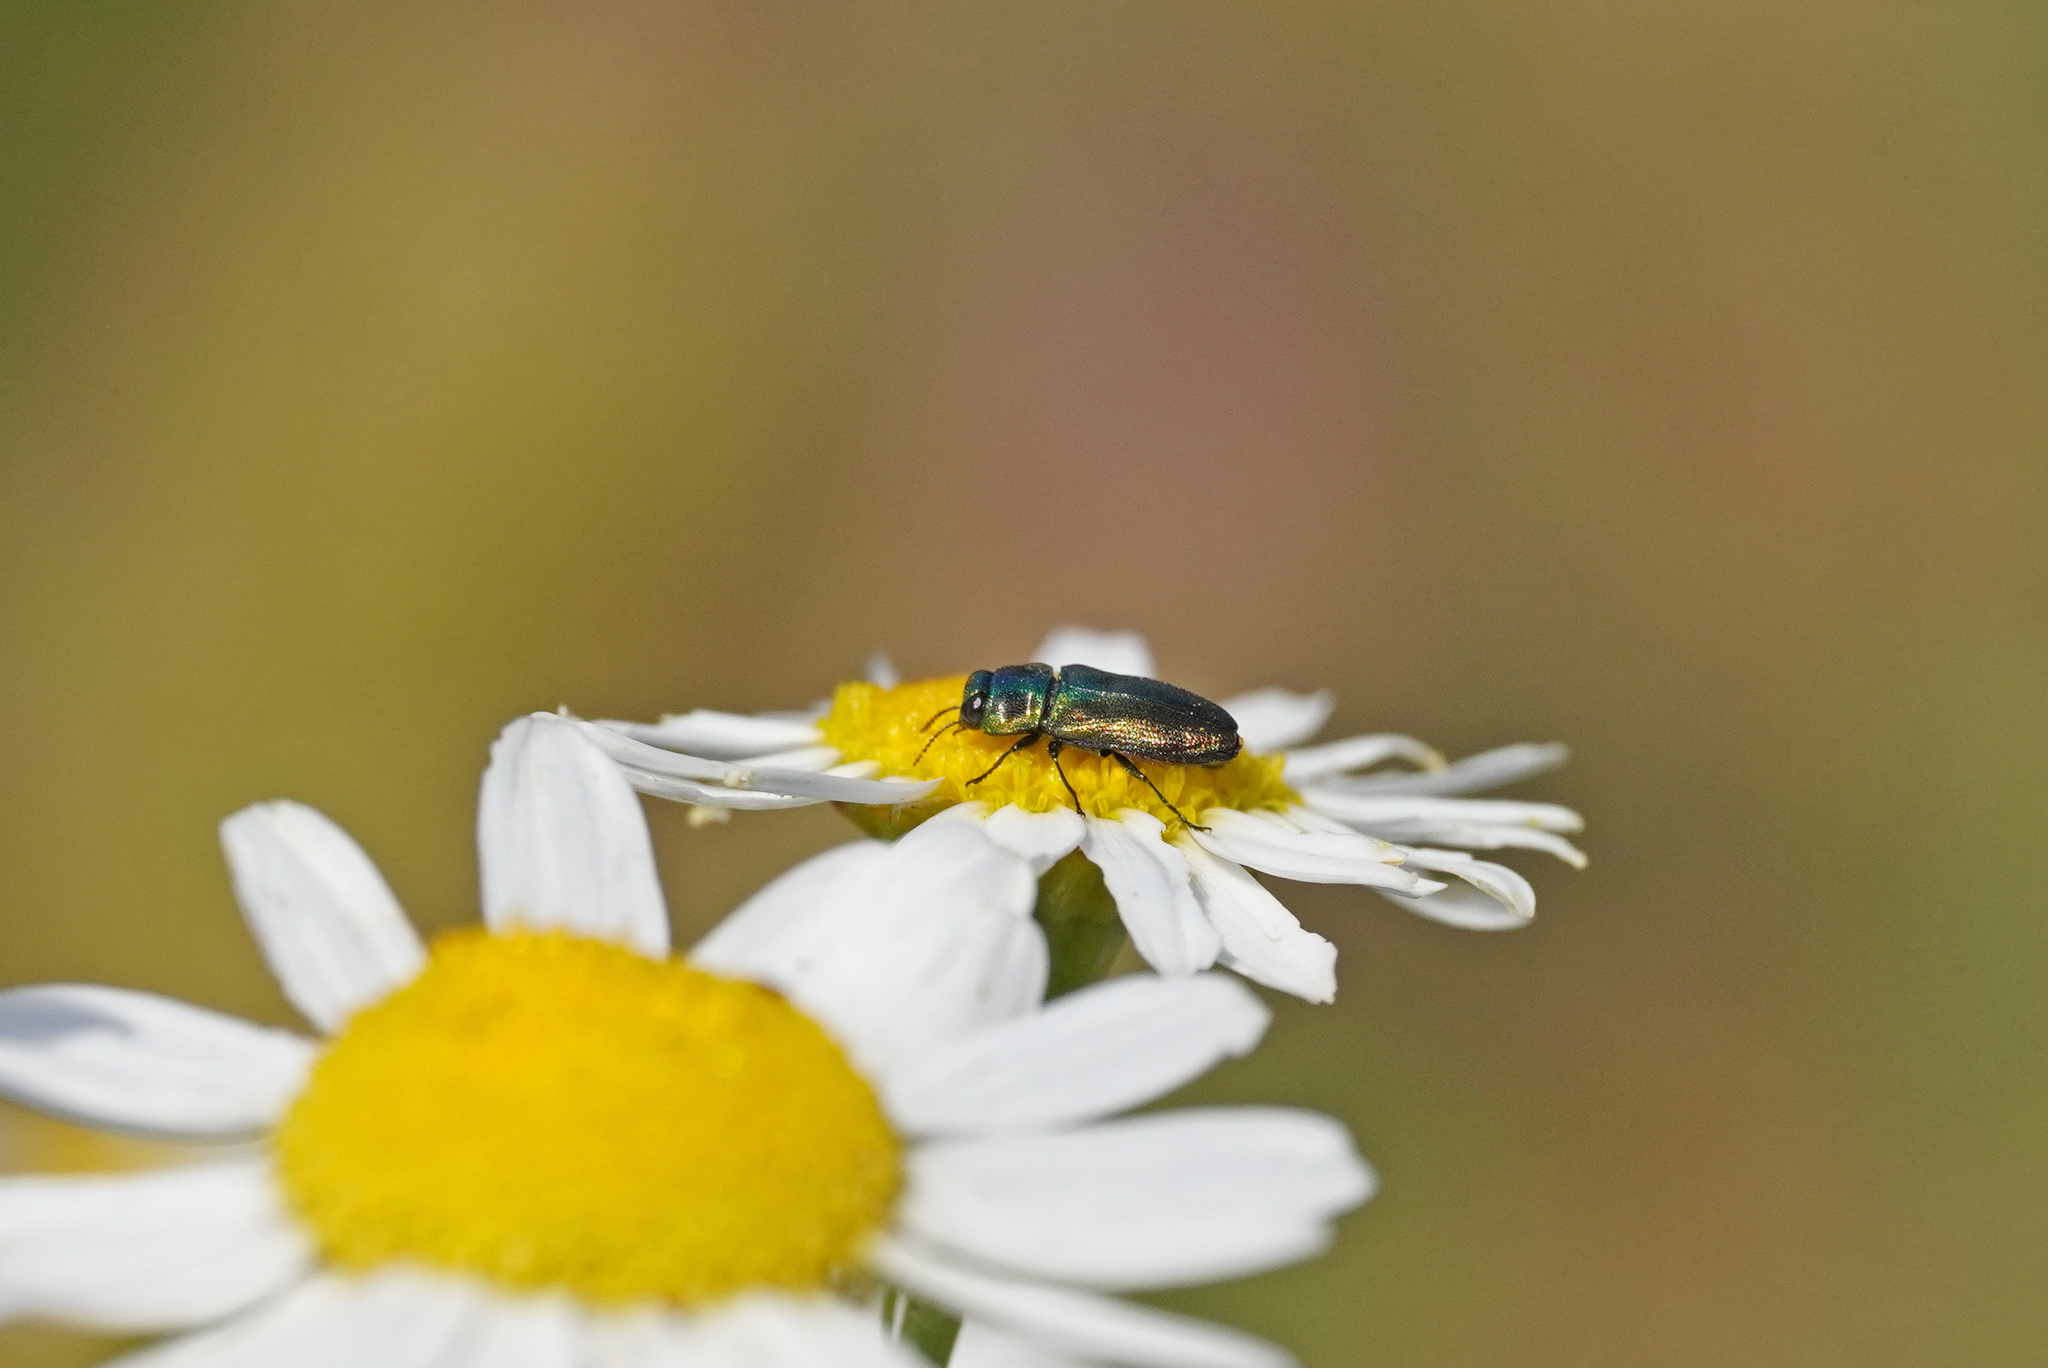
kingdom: Animalia
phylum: Arthropoda
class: Insecta
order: Coleoptera
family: Buprestidae
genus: Anthaxia
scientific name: Anthaxia podolica
